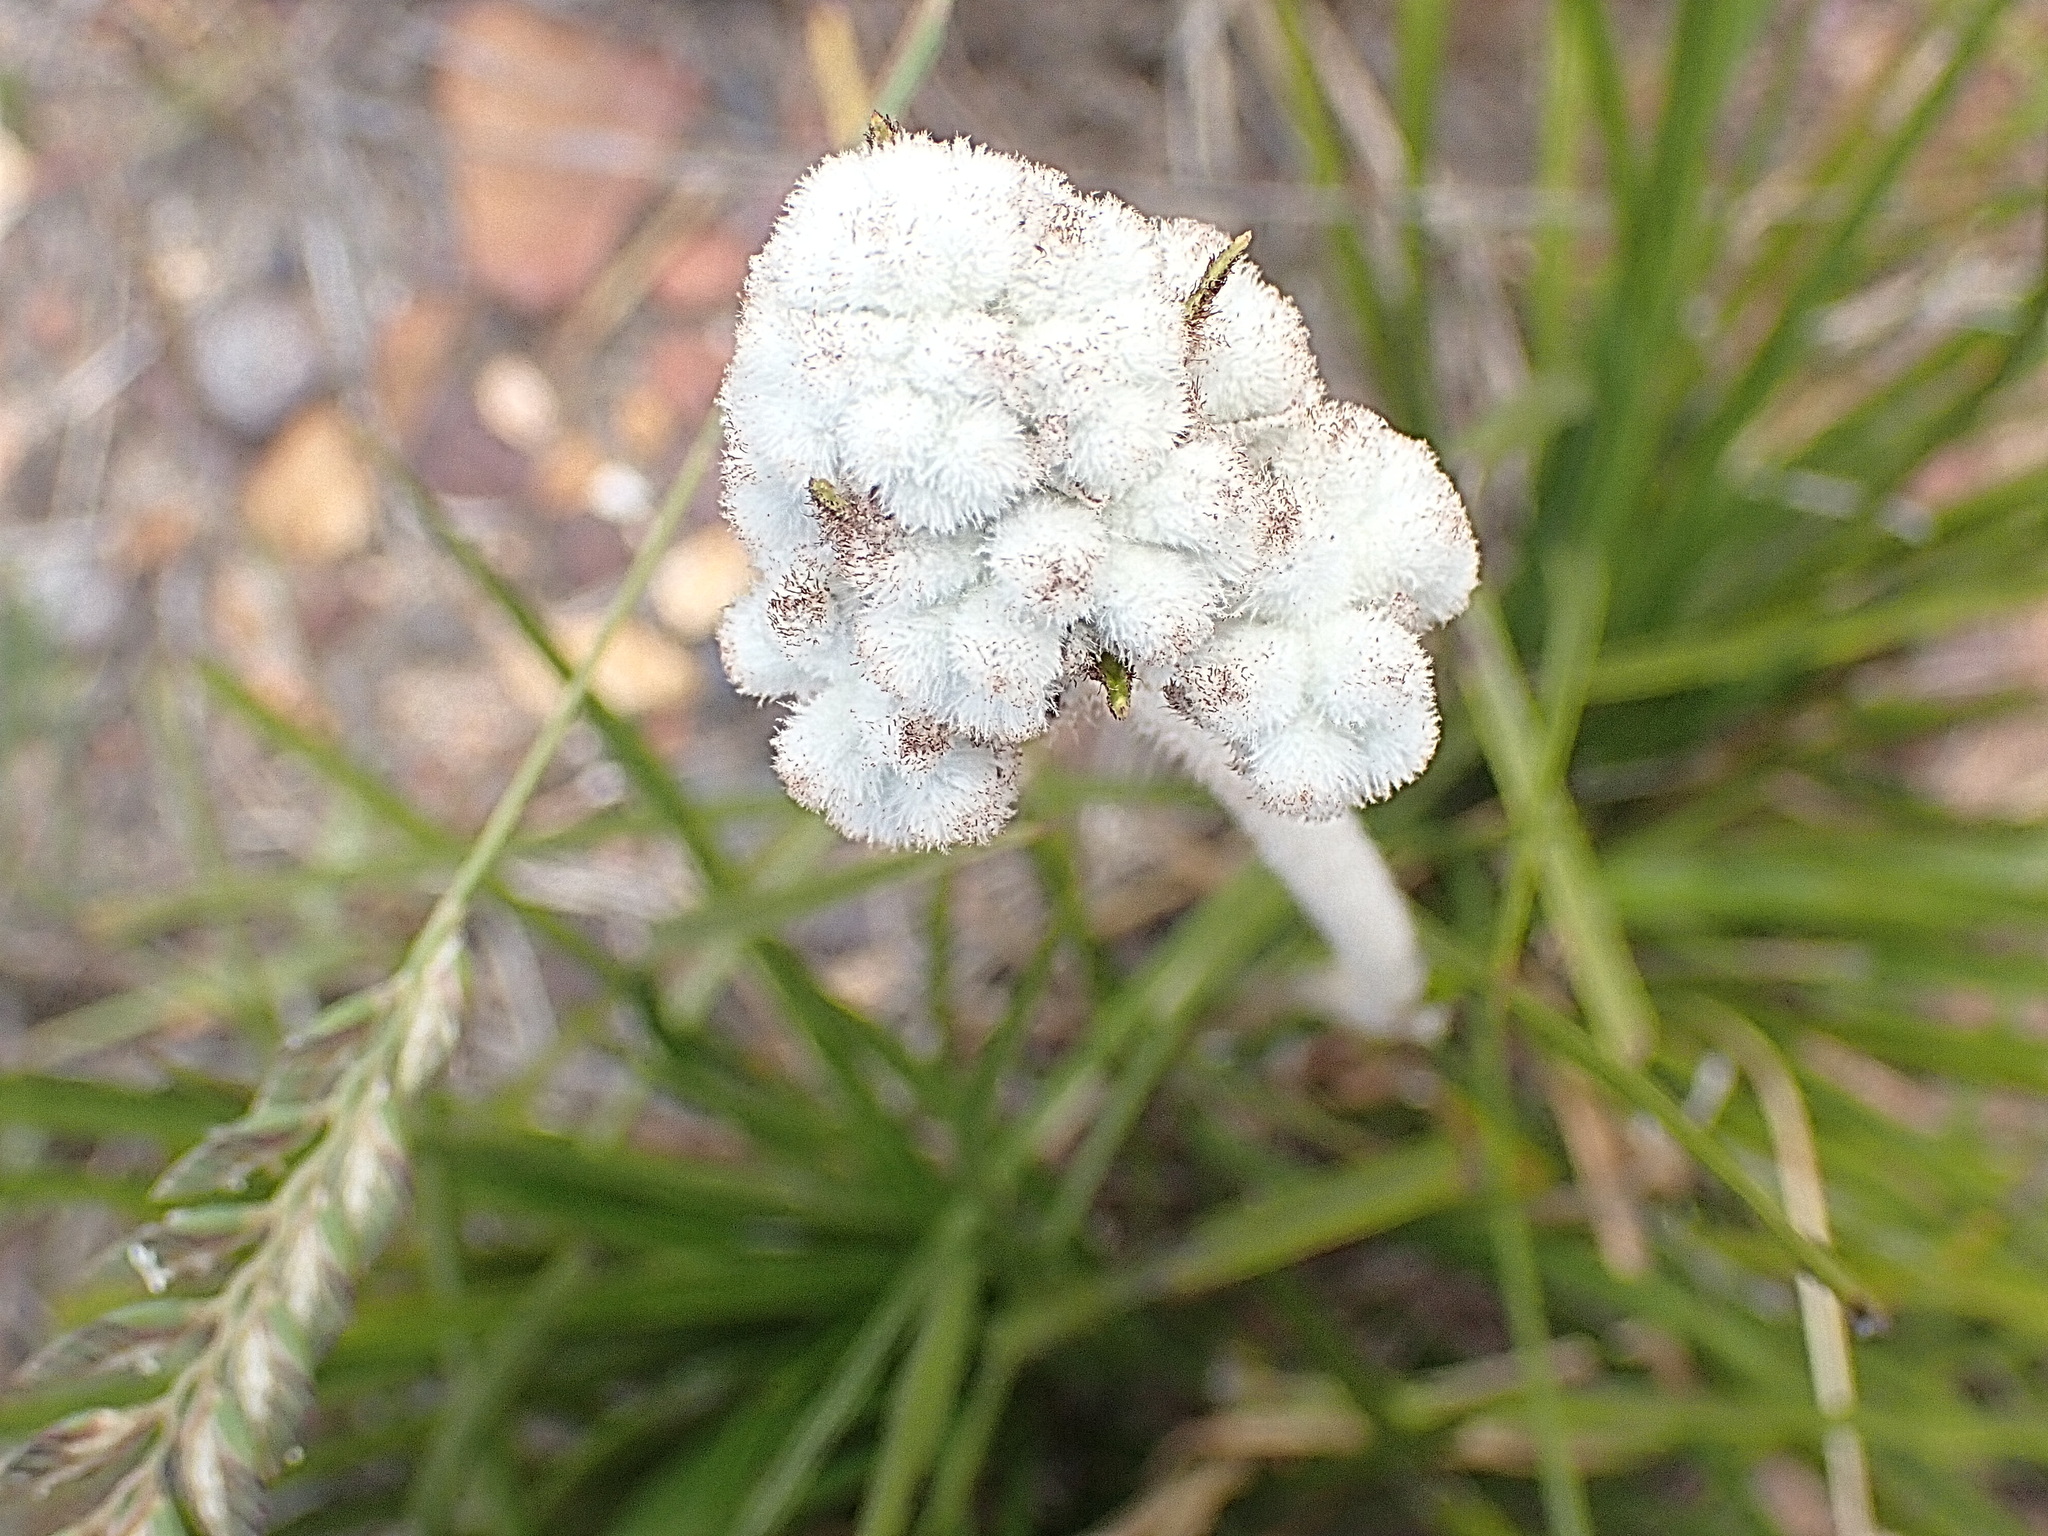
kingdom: Plantae
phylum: Tracheophyta
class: Liliopsida
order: Asparagales
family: Lanariaceae
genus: Lanaria
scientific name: Lanaria lanata
